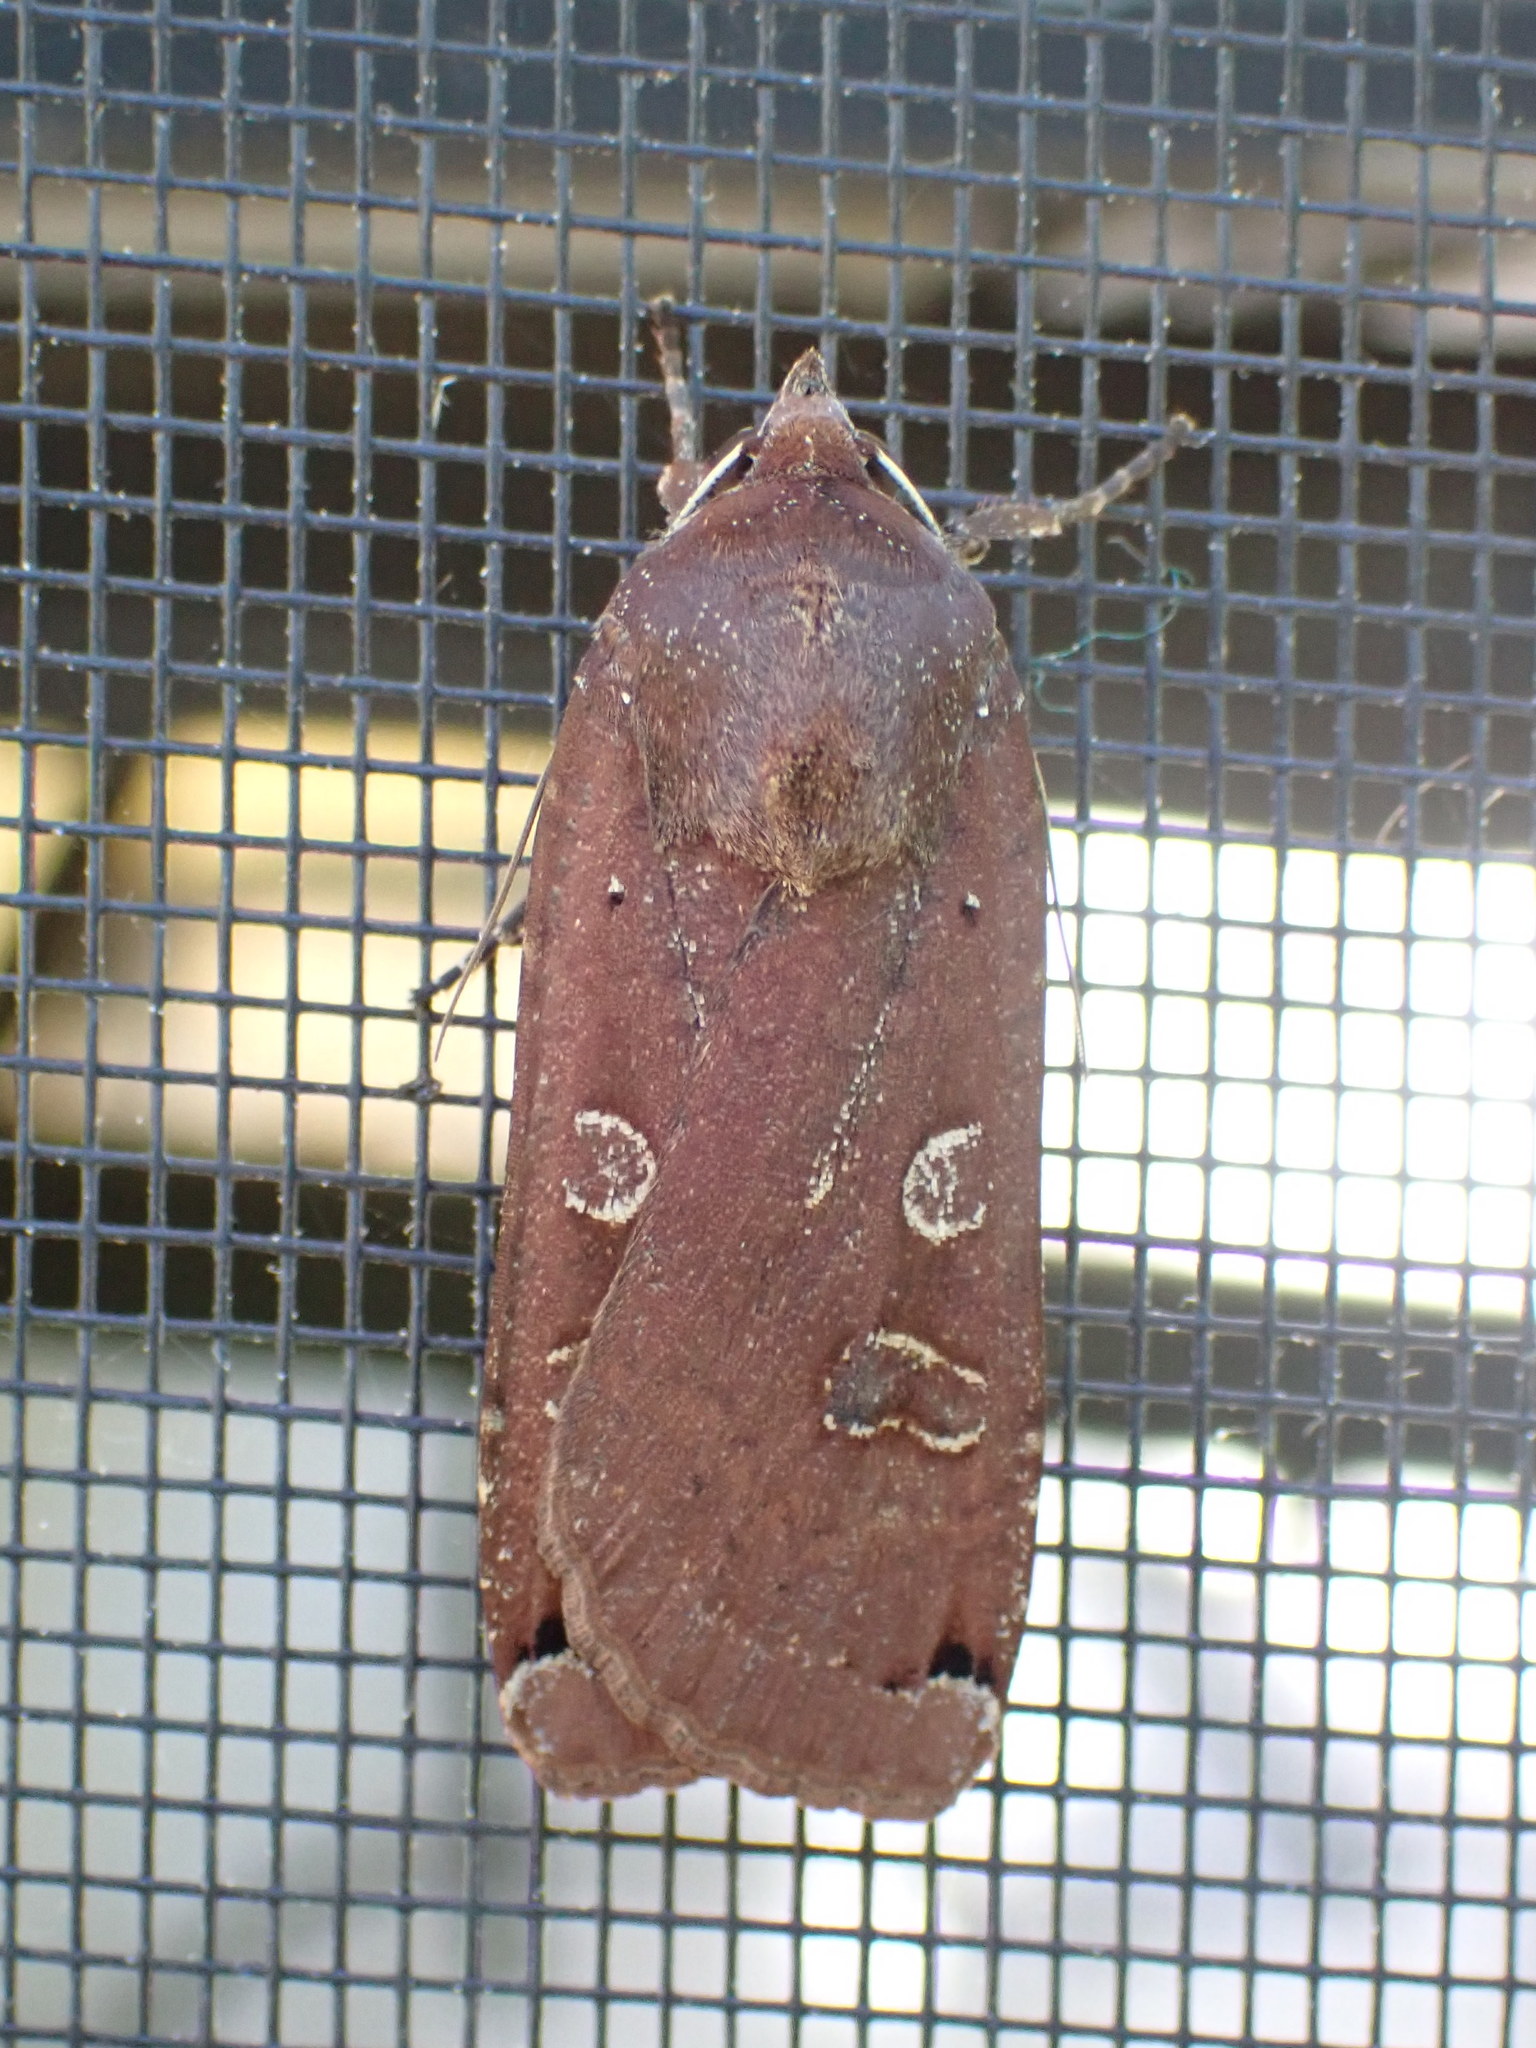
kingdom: Animalia
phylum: Arthropoda
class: Insecta
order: Lepidoptera
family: Noctuidae
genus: Noctua
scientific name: Noctua pronuba
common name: Large yellow underwing
